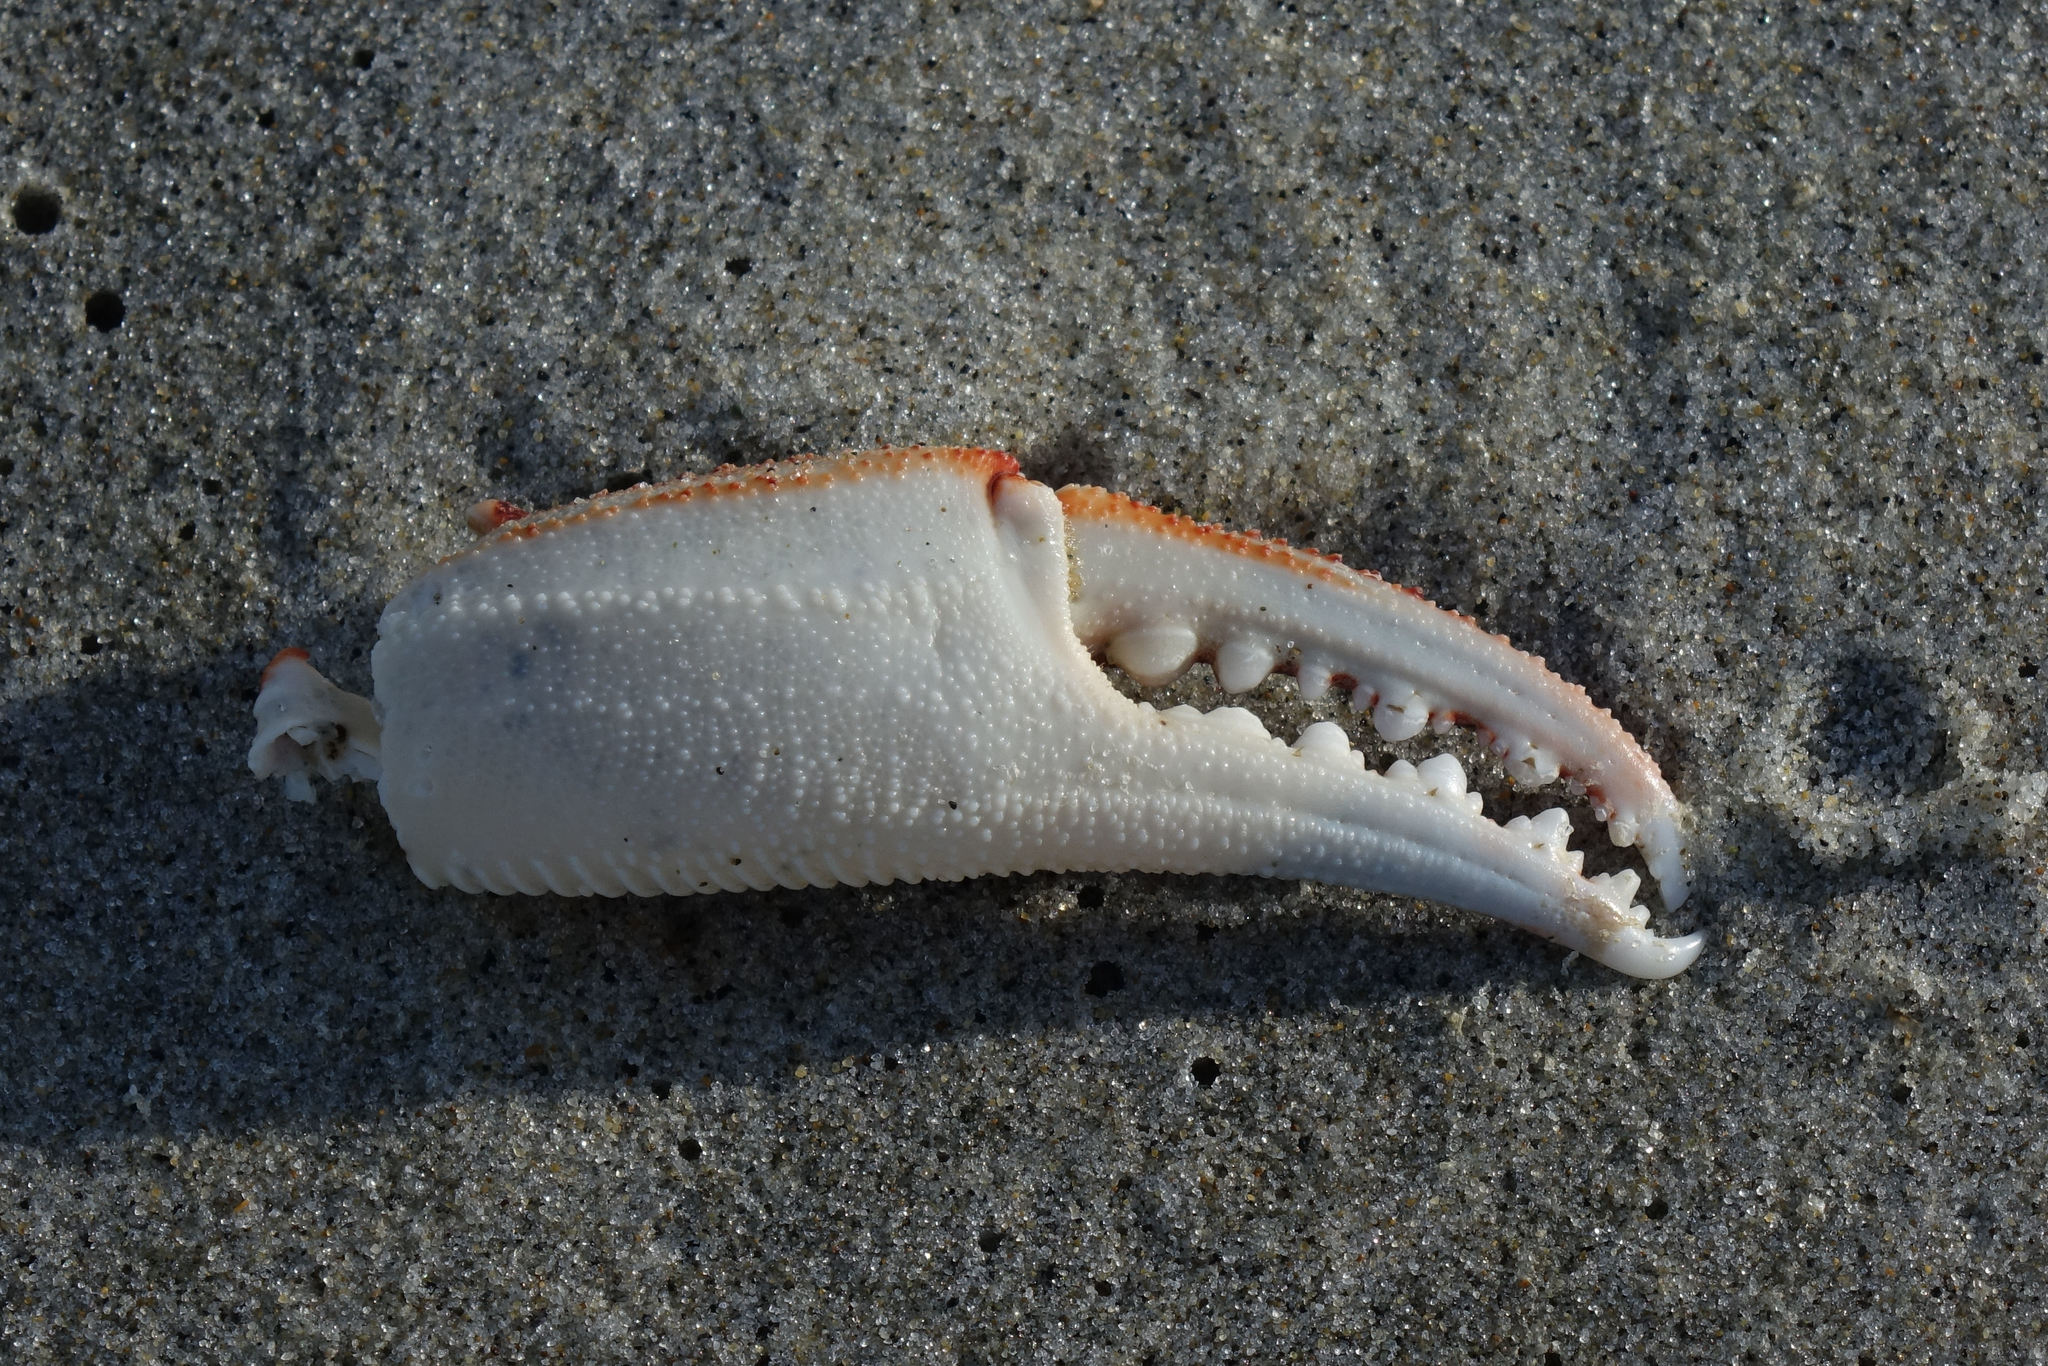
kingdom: Animalia
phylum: Arthropoda
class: Malacostraca
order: Decapoda
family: Ovalipidae
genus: Ovalipes
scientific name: Ovalipes catharus
